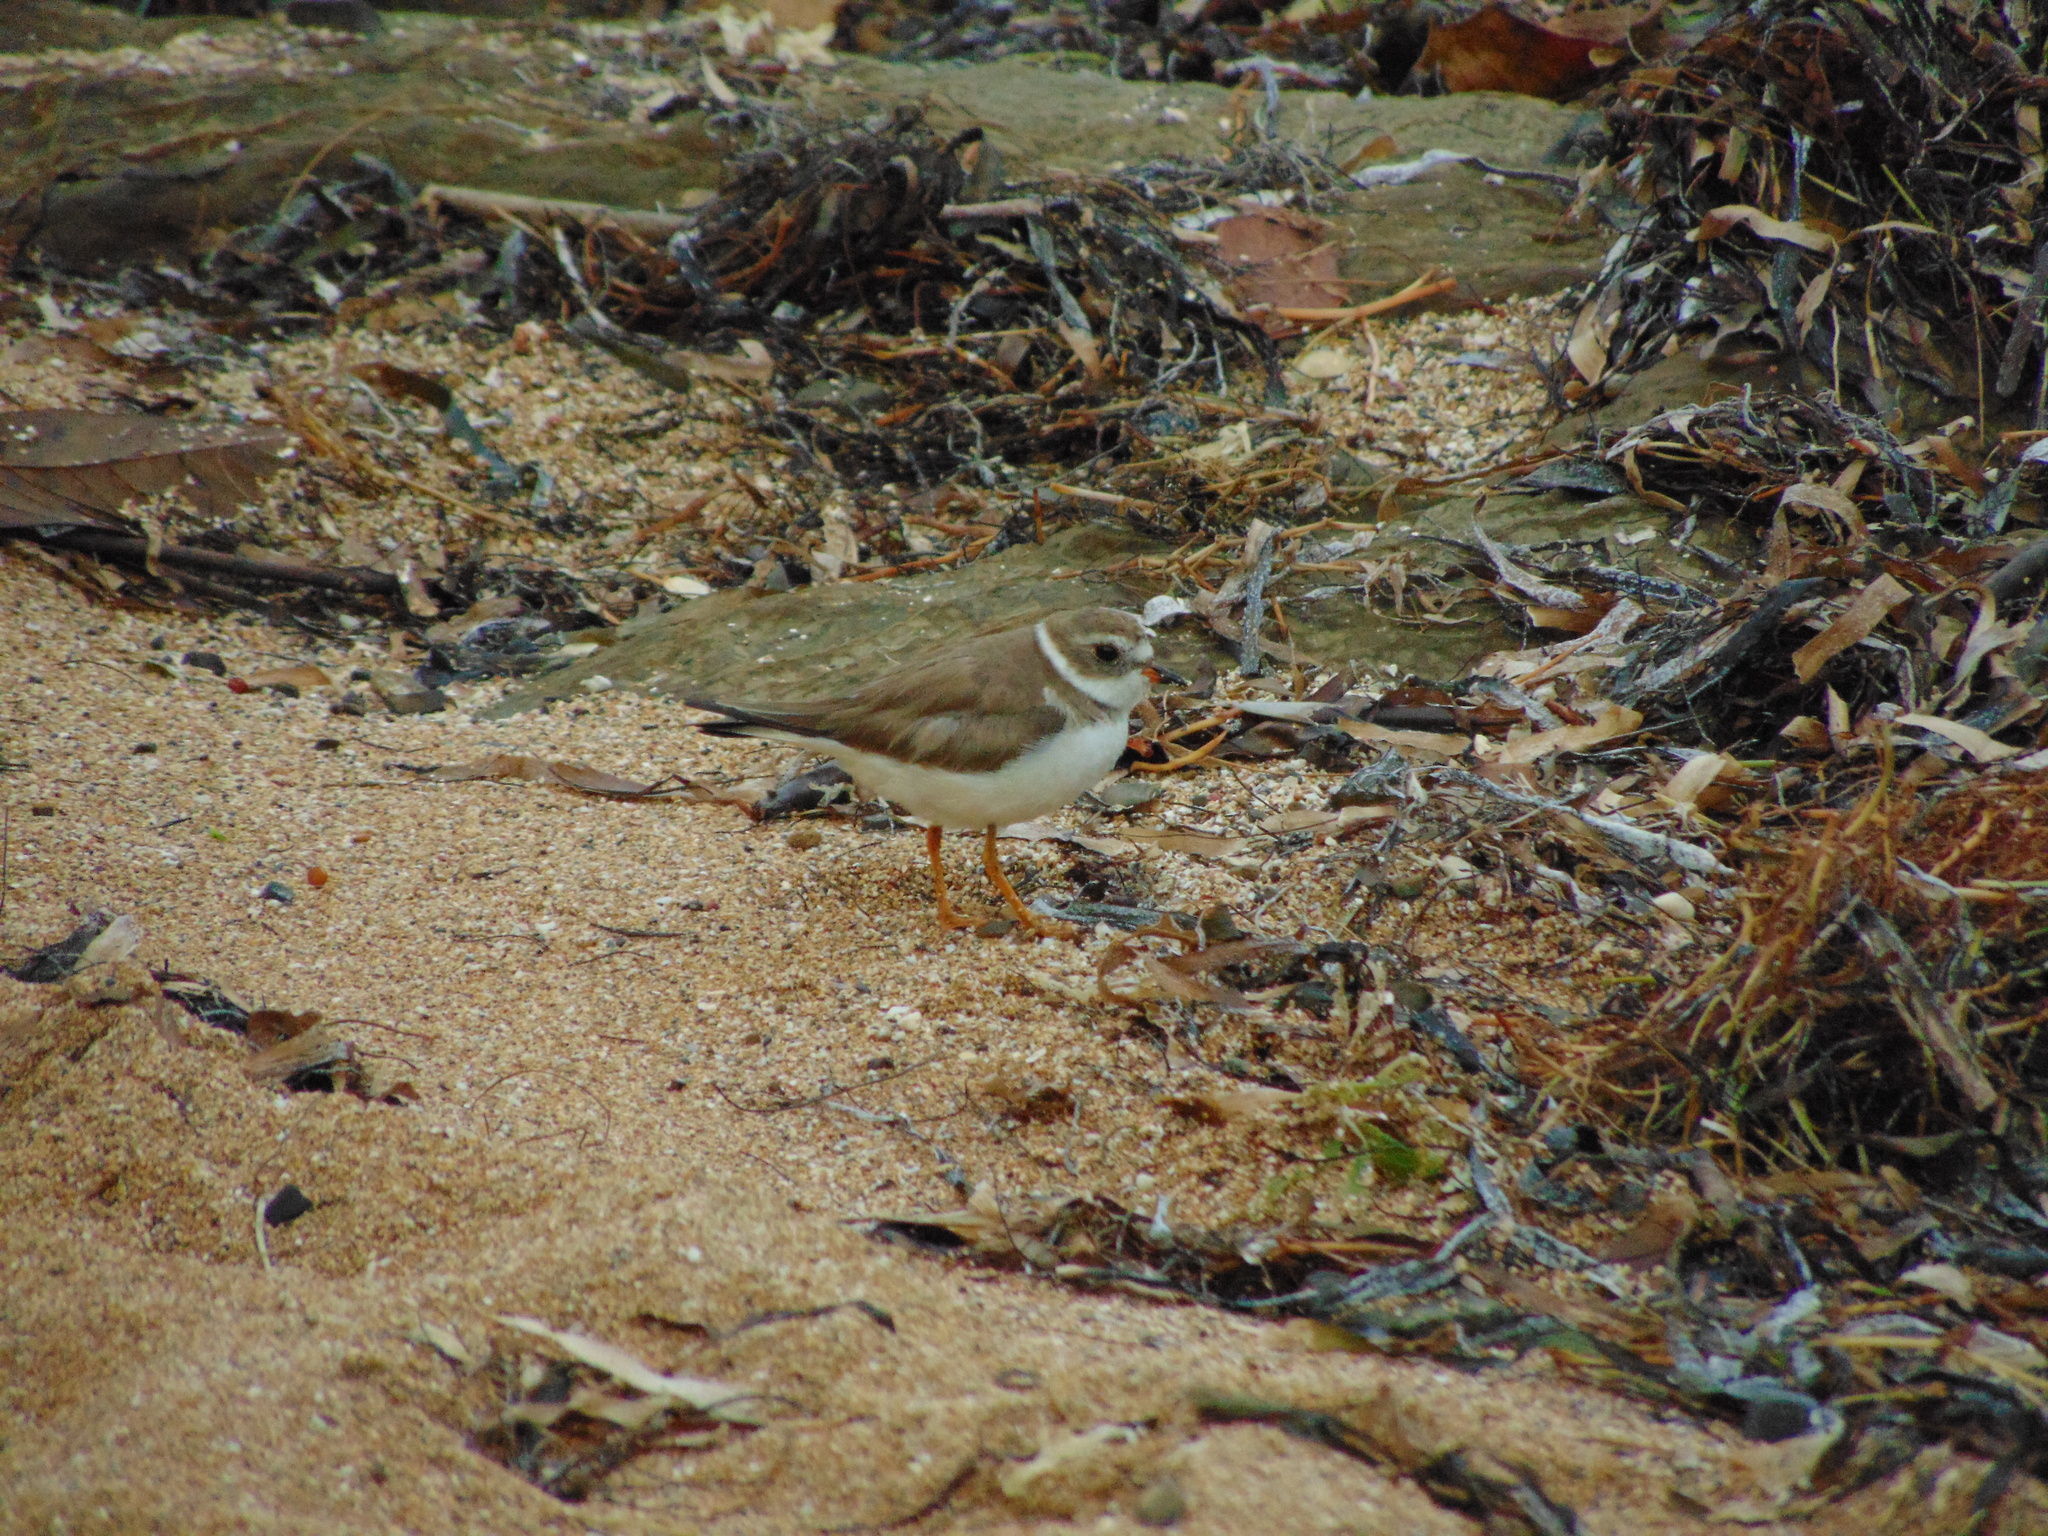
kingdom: Animalia
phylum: Chordata
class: Aves
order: Charadriiformes
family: Charadriidae
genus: Charadrius
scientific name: Charadrius semipalmatus
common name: Semipalmated plover
